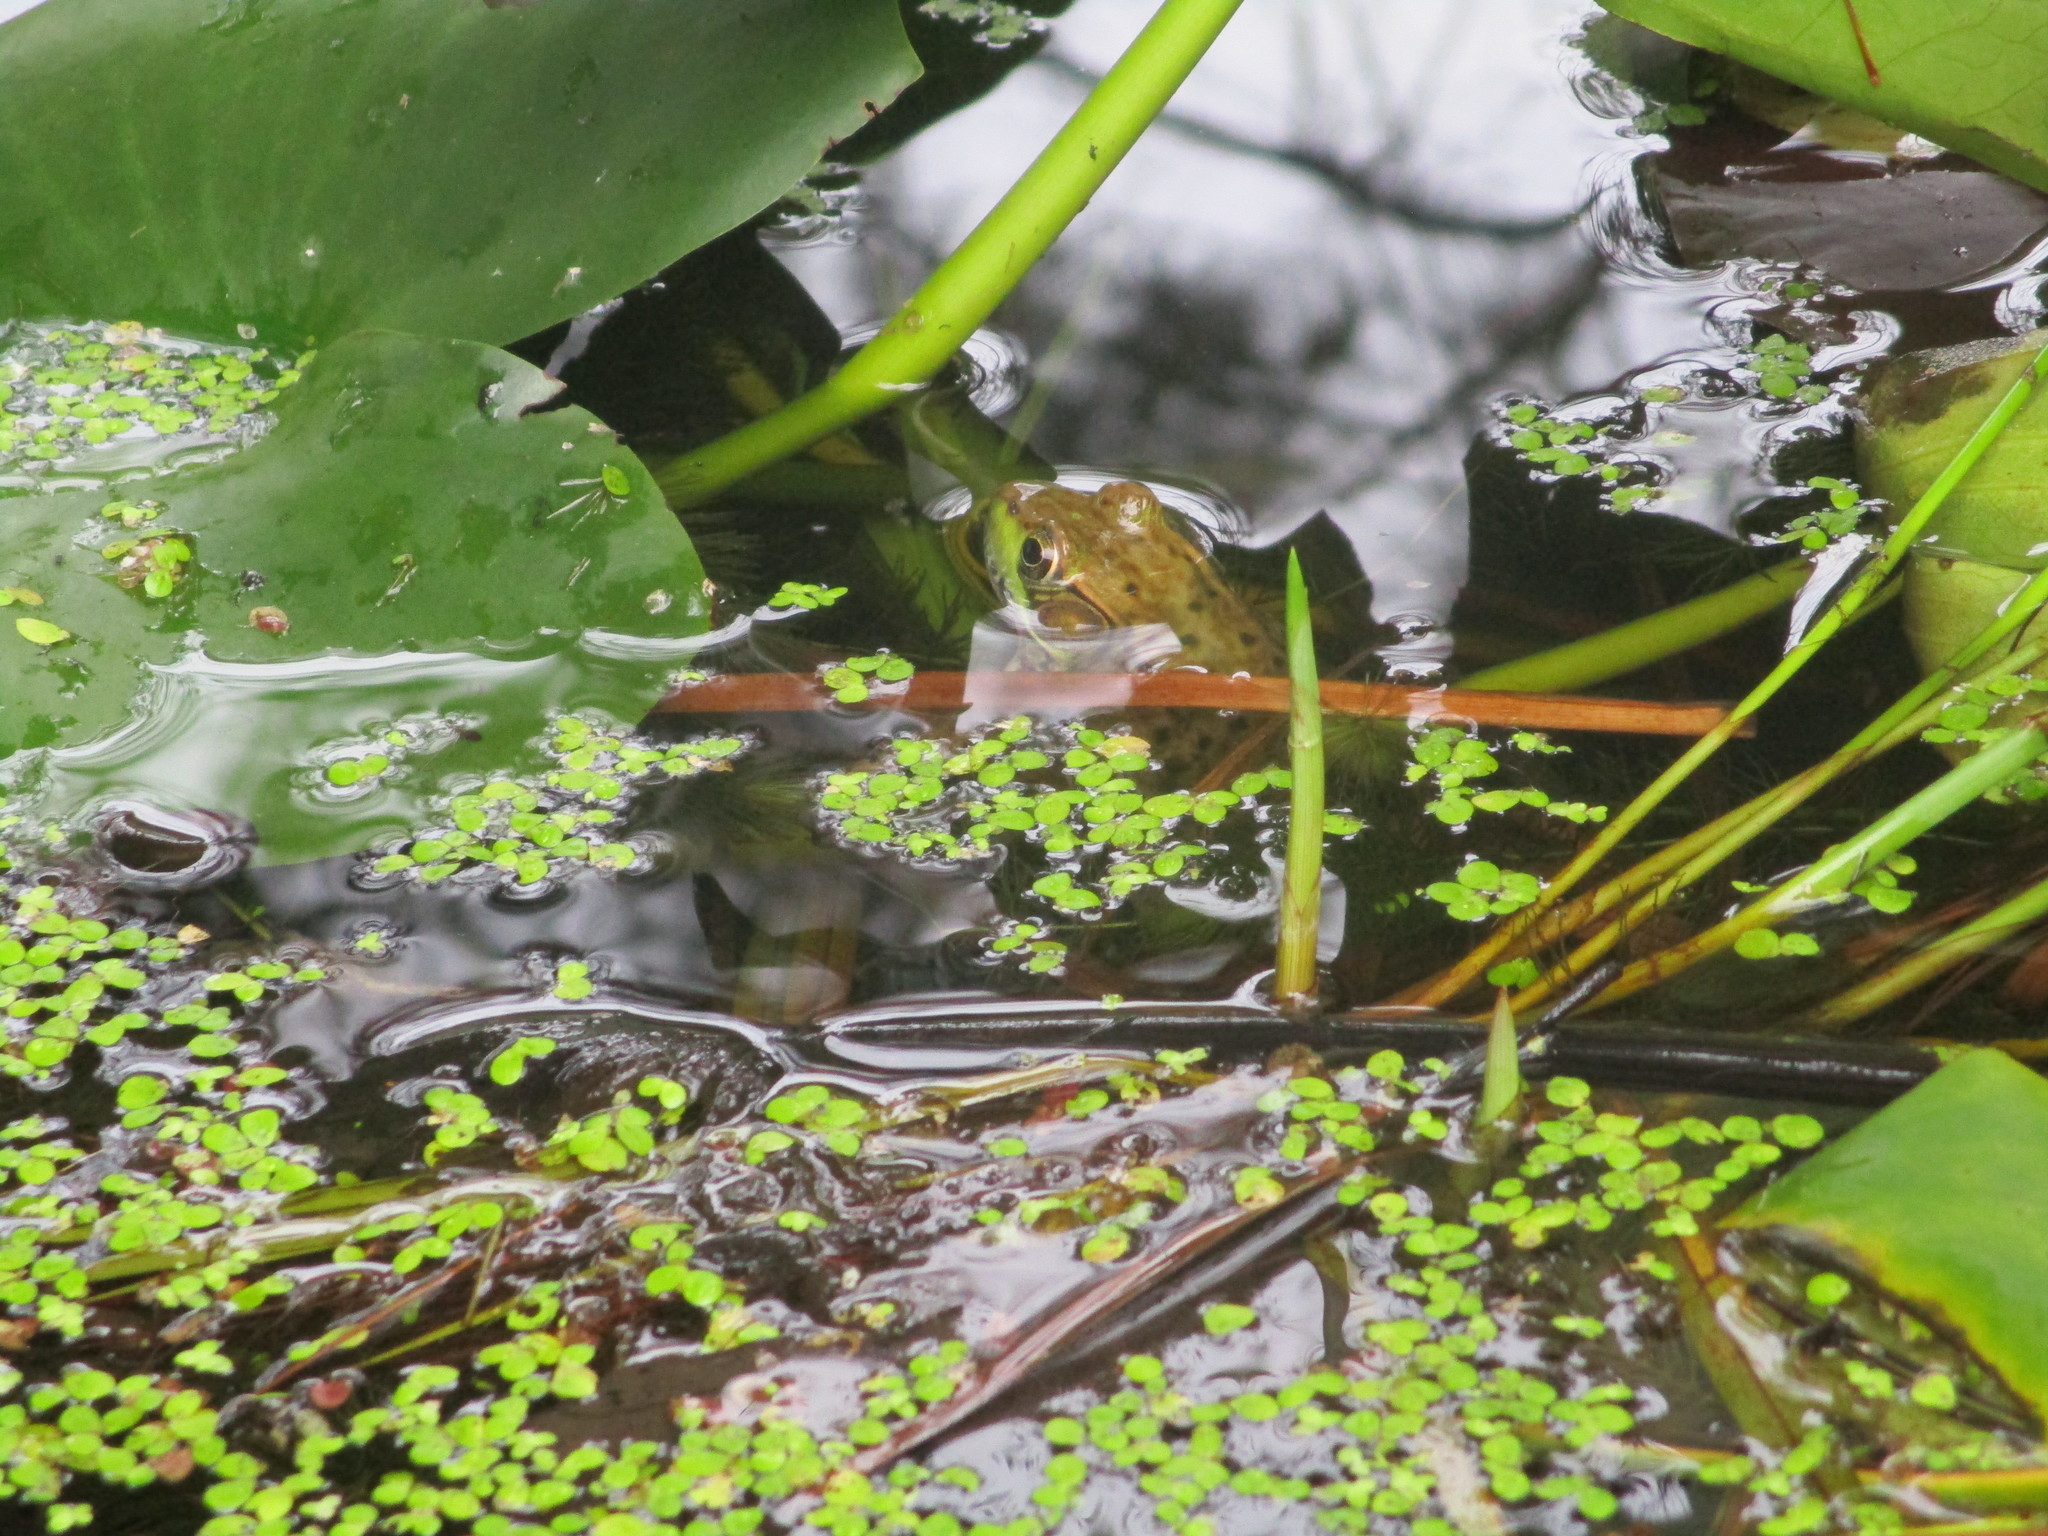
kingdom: Animalia
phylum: Chordata
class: Amphibia
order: Anura
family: Ranidae
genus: Lithobates
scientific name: Lithobates clamitans
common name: Green frog
